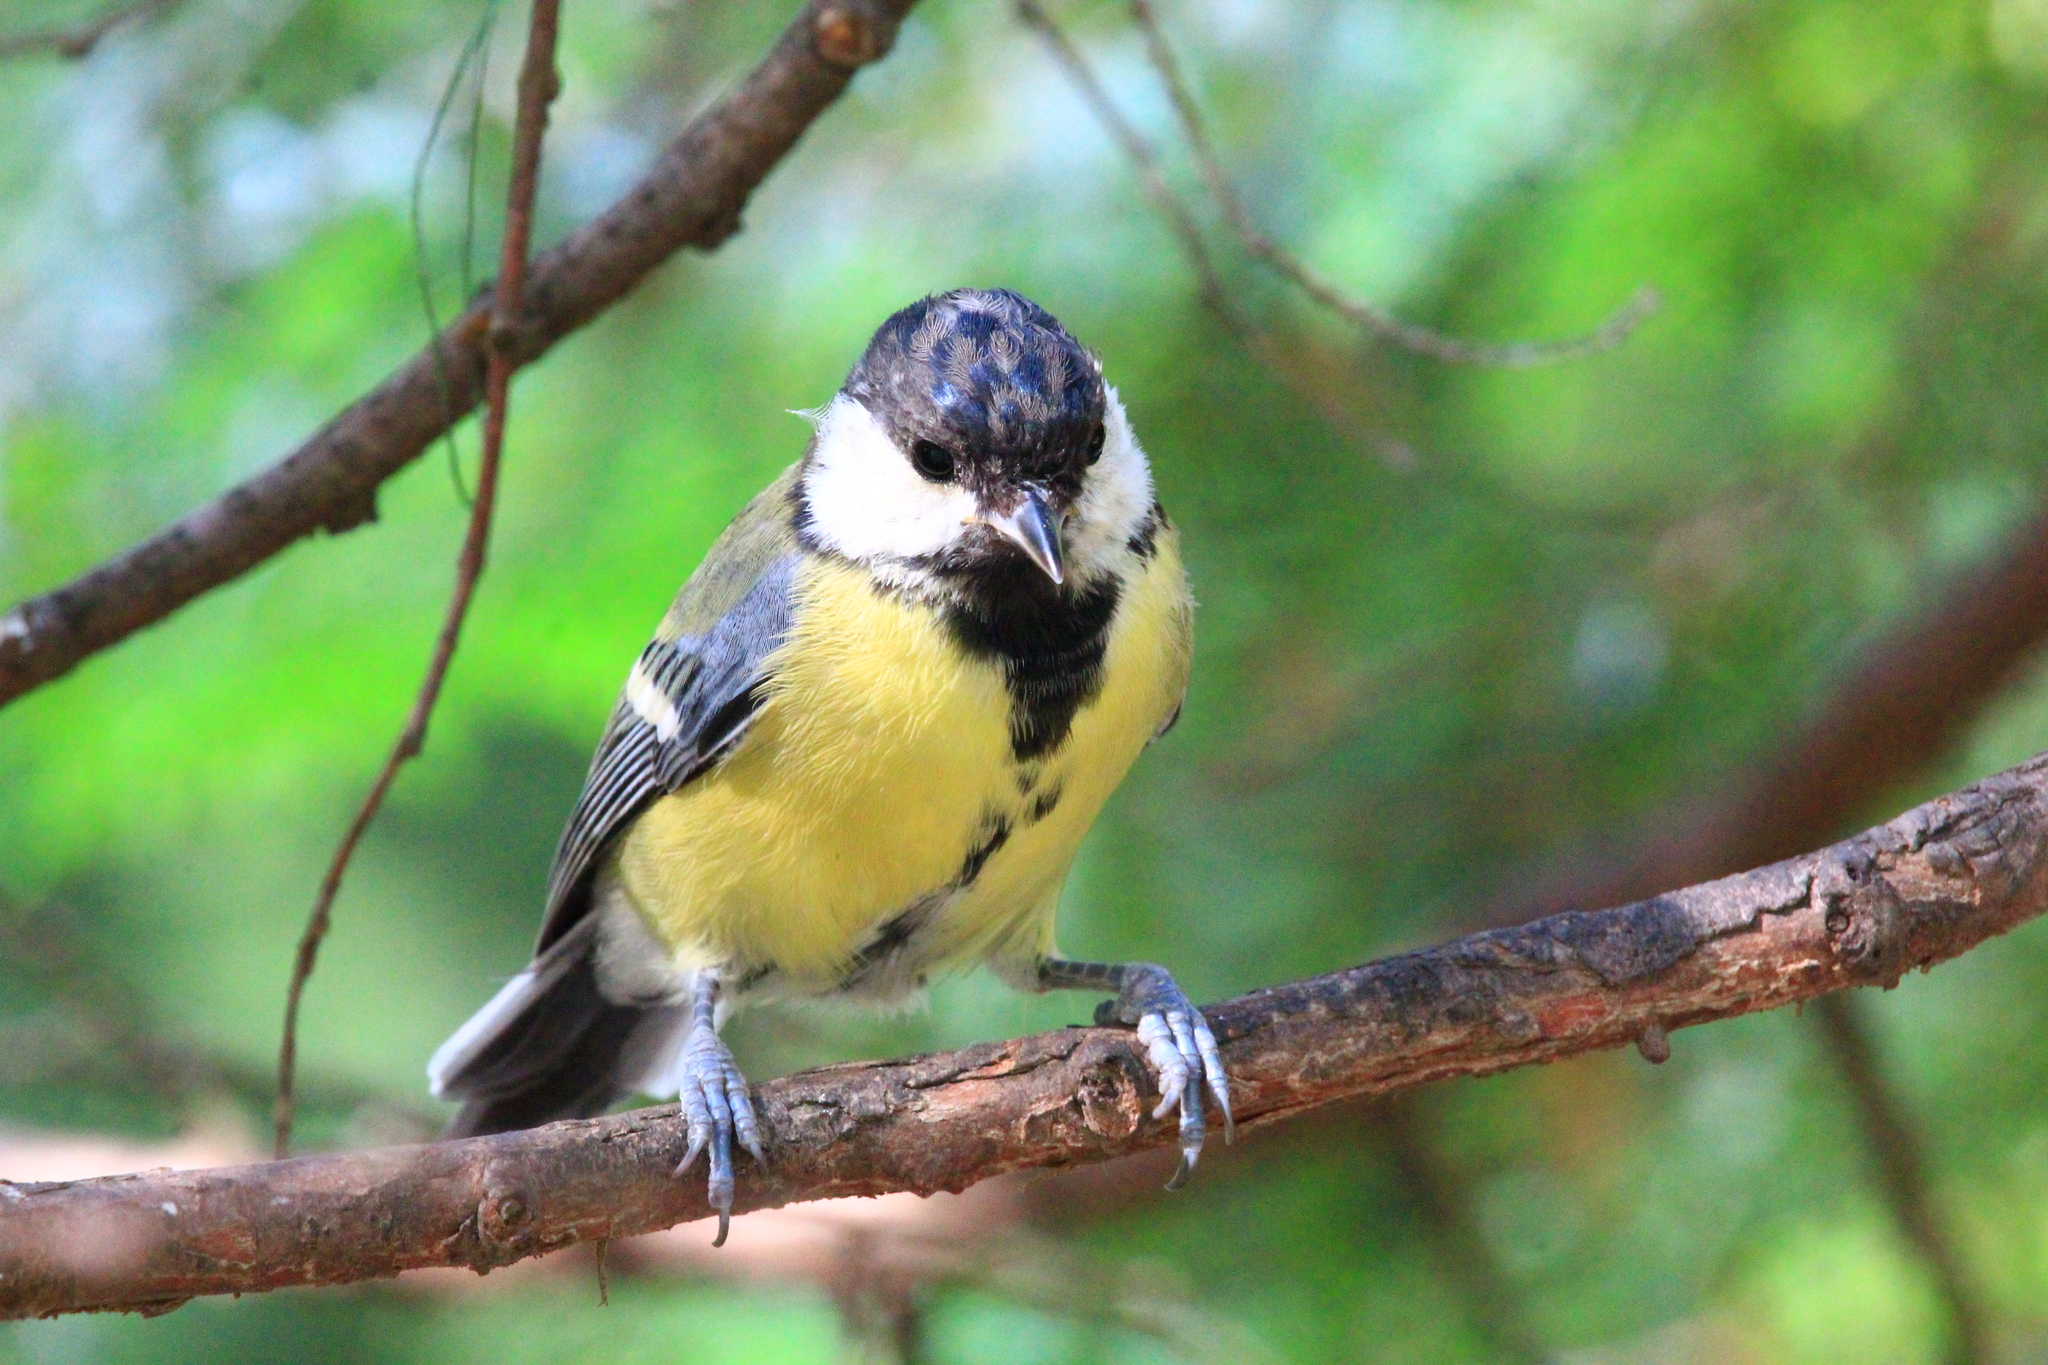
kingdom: Animalia
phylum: Chordata
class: Aves
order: Passeriformes
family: Paridae
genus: Parus
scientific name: Parus major
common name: Great tit
